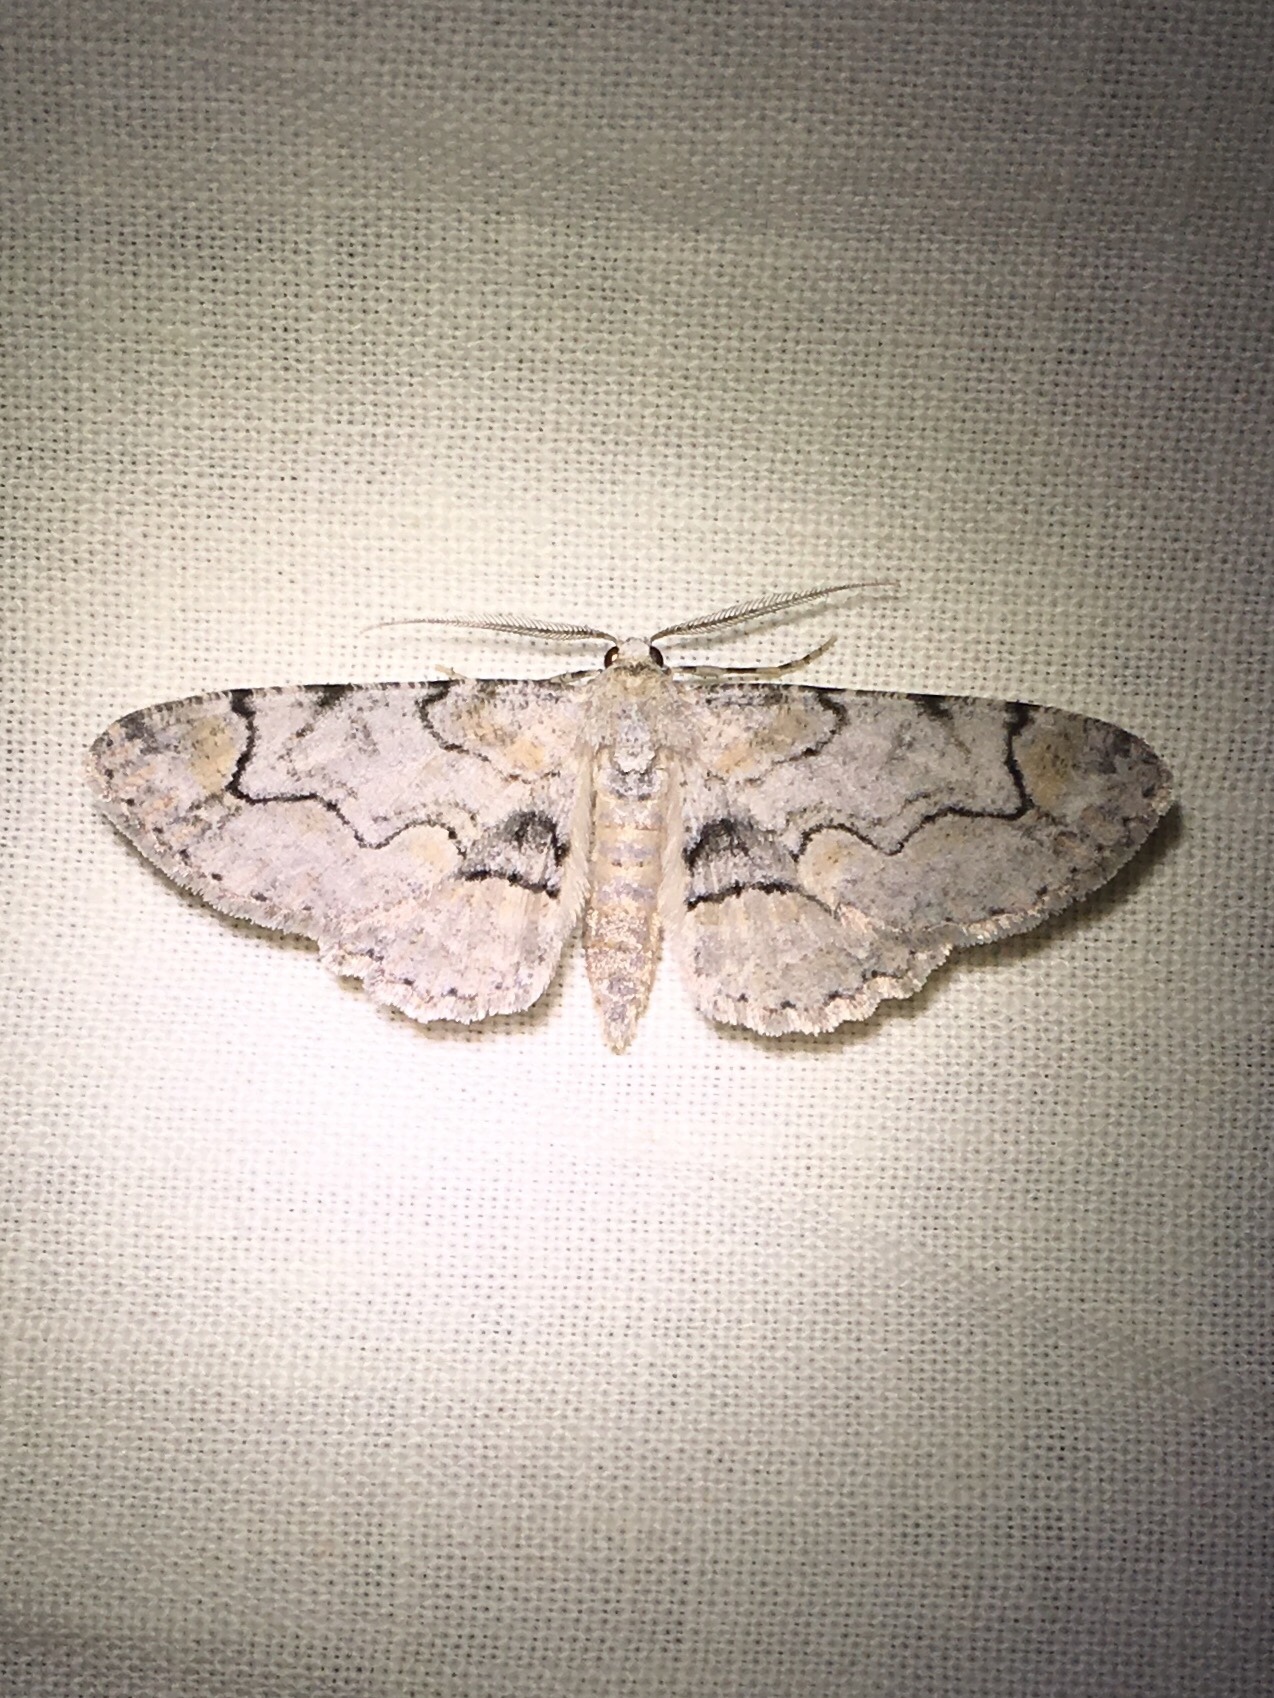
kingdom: Animalia
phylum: Arthropoda
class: Insecta
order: Lepidoptera
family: Geometridae
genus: Iridopsis
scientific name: Iridopsis larvaria
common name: Bent-line gray
